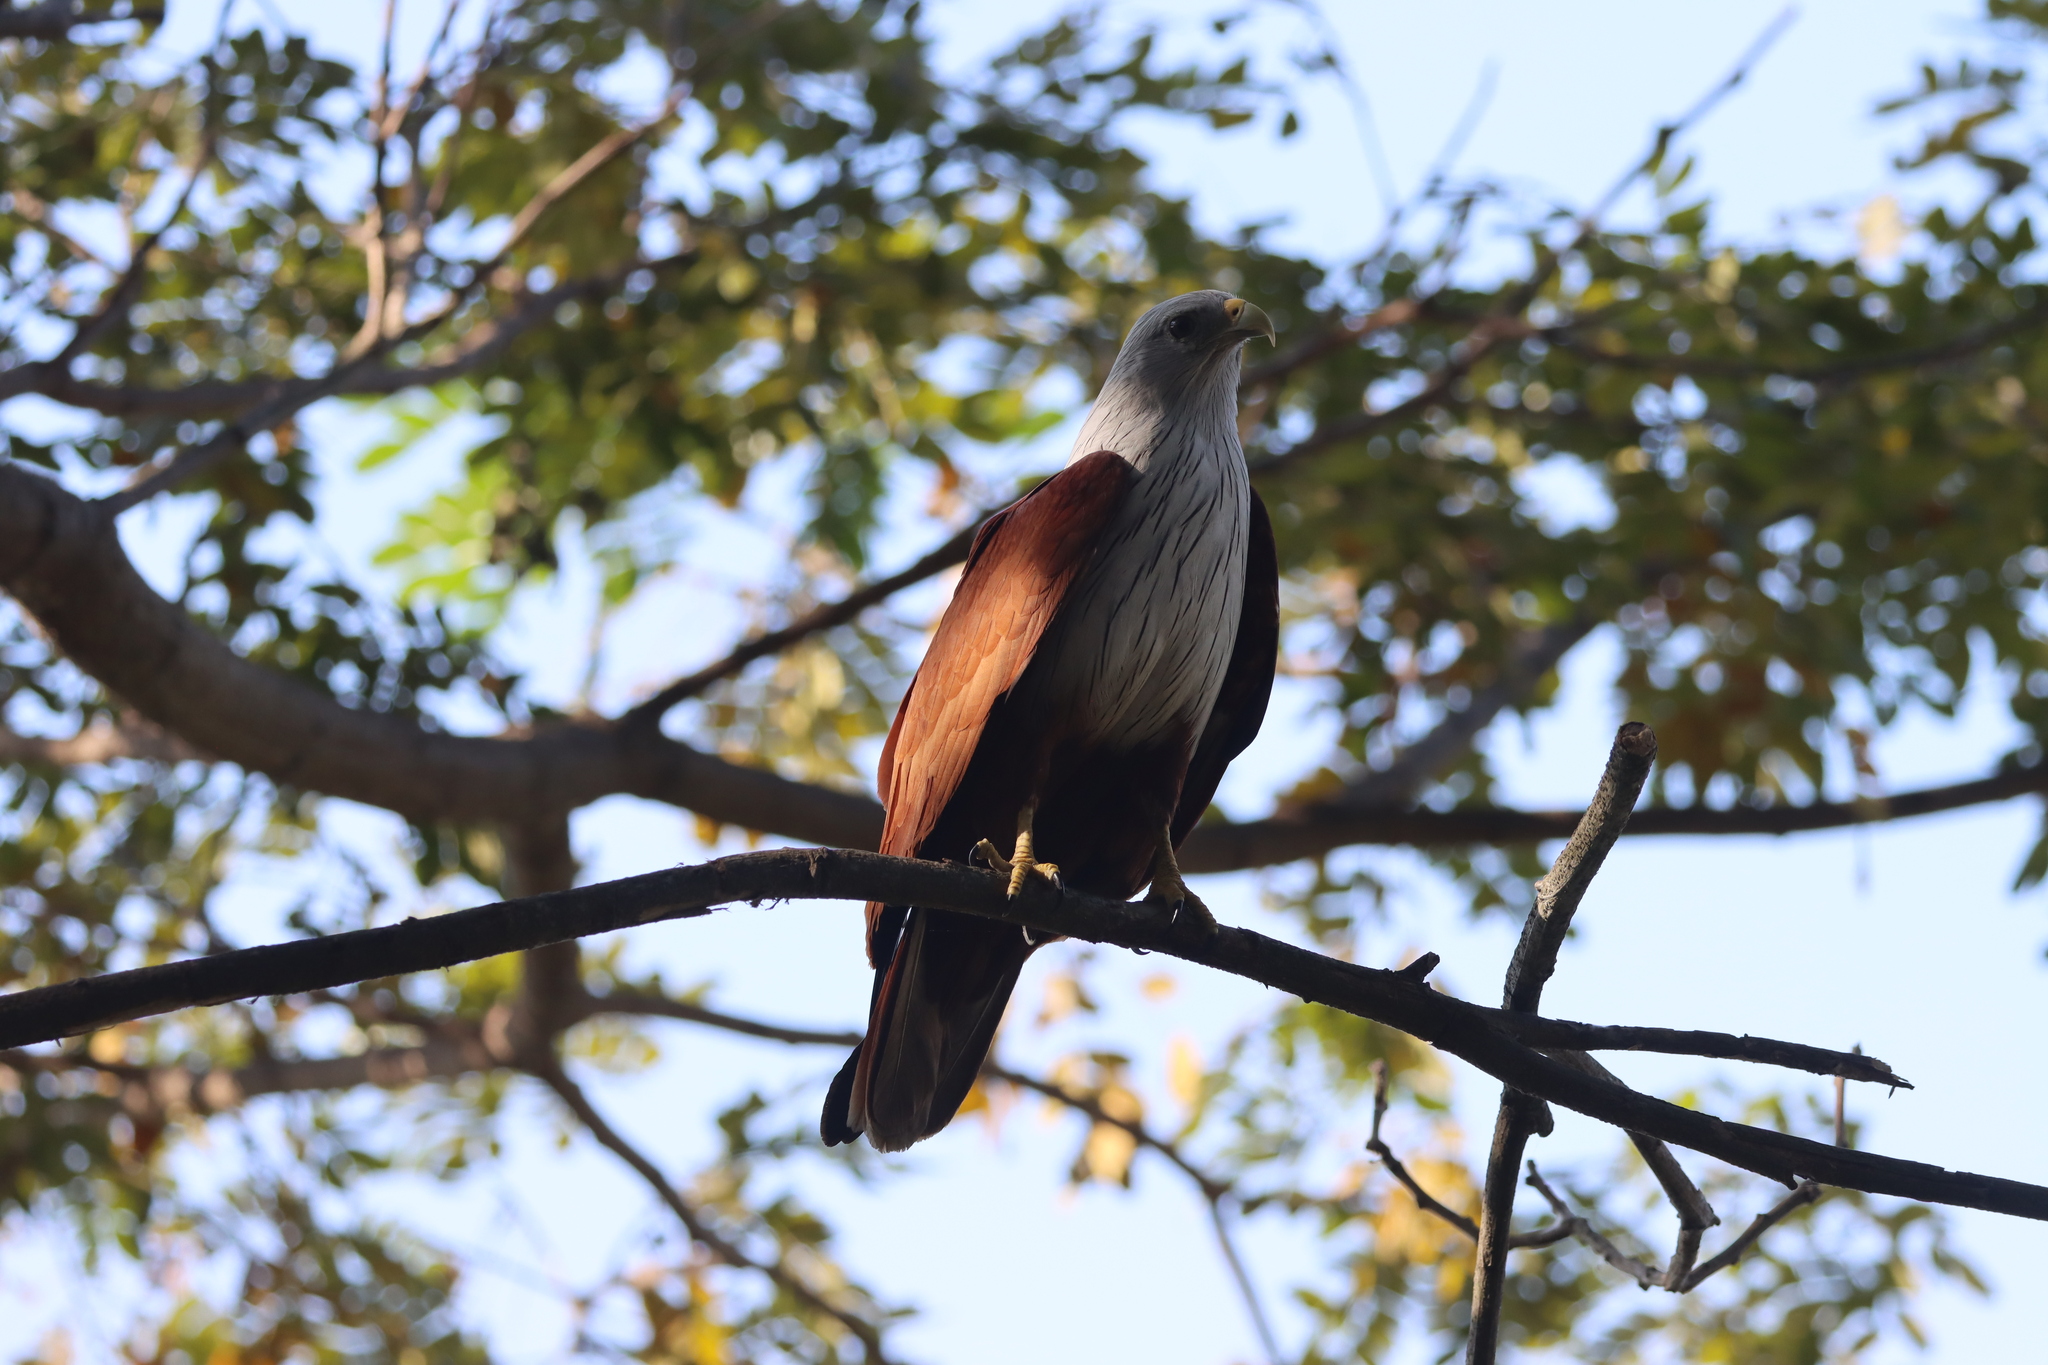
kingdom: Animalia
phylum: Chordata
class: Aves
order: Accipitriformes
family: Accipitridae
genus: Haliastur
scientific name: Haliastur indus
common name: Brahminy kite
